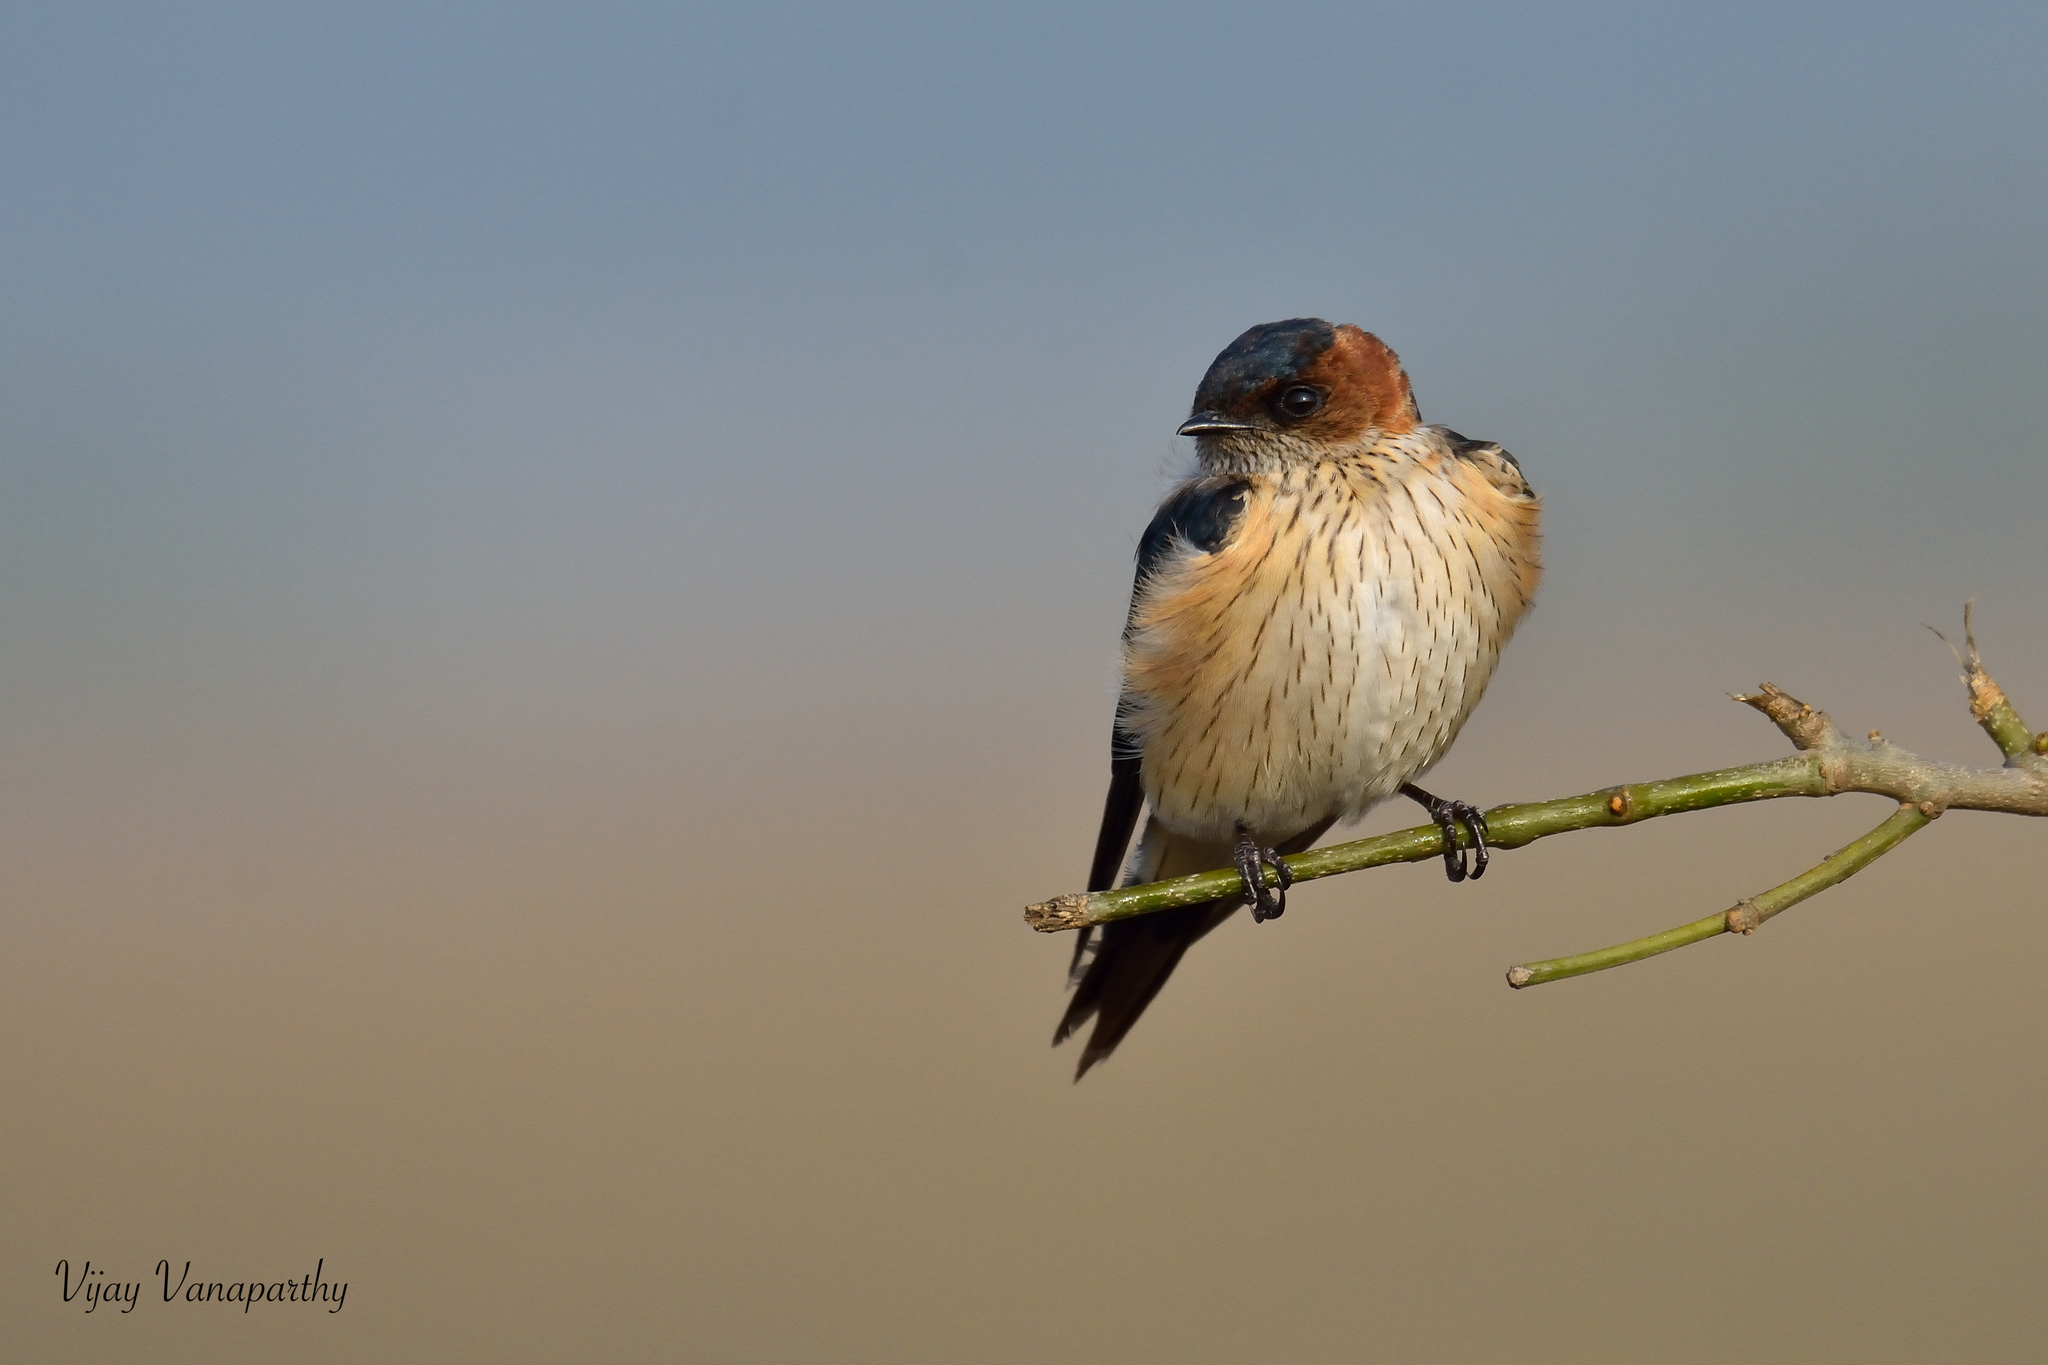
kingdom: Animalia
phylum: Chordata
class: Aves
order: Passeriformes
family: Hirundinidae
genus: Cecropis
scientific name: Cecropis daurica
